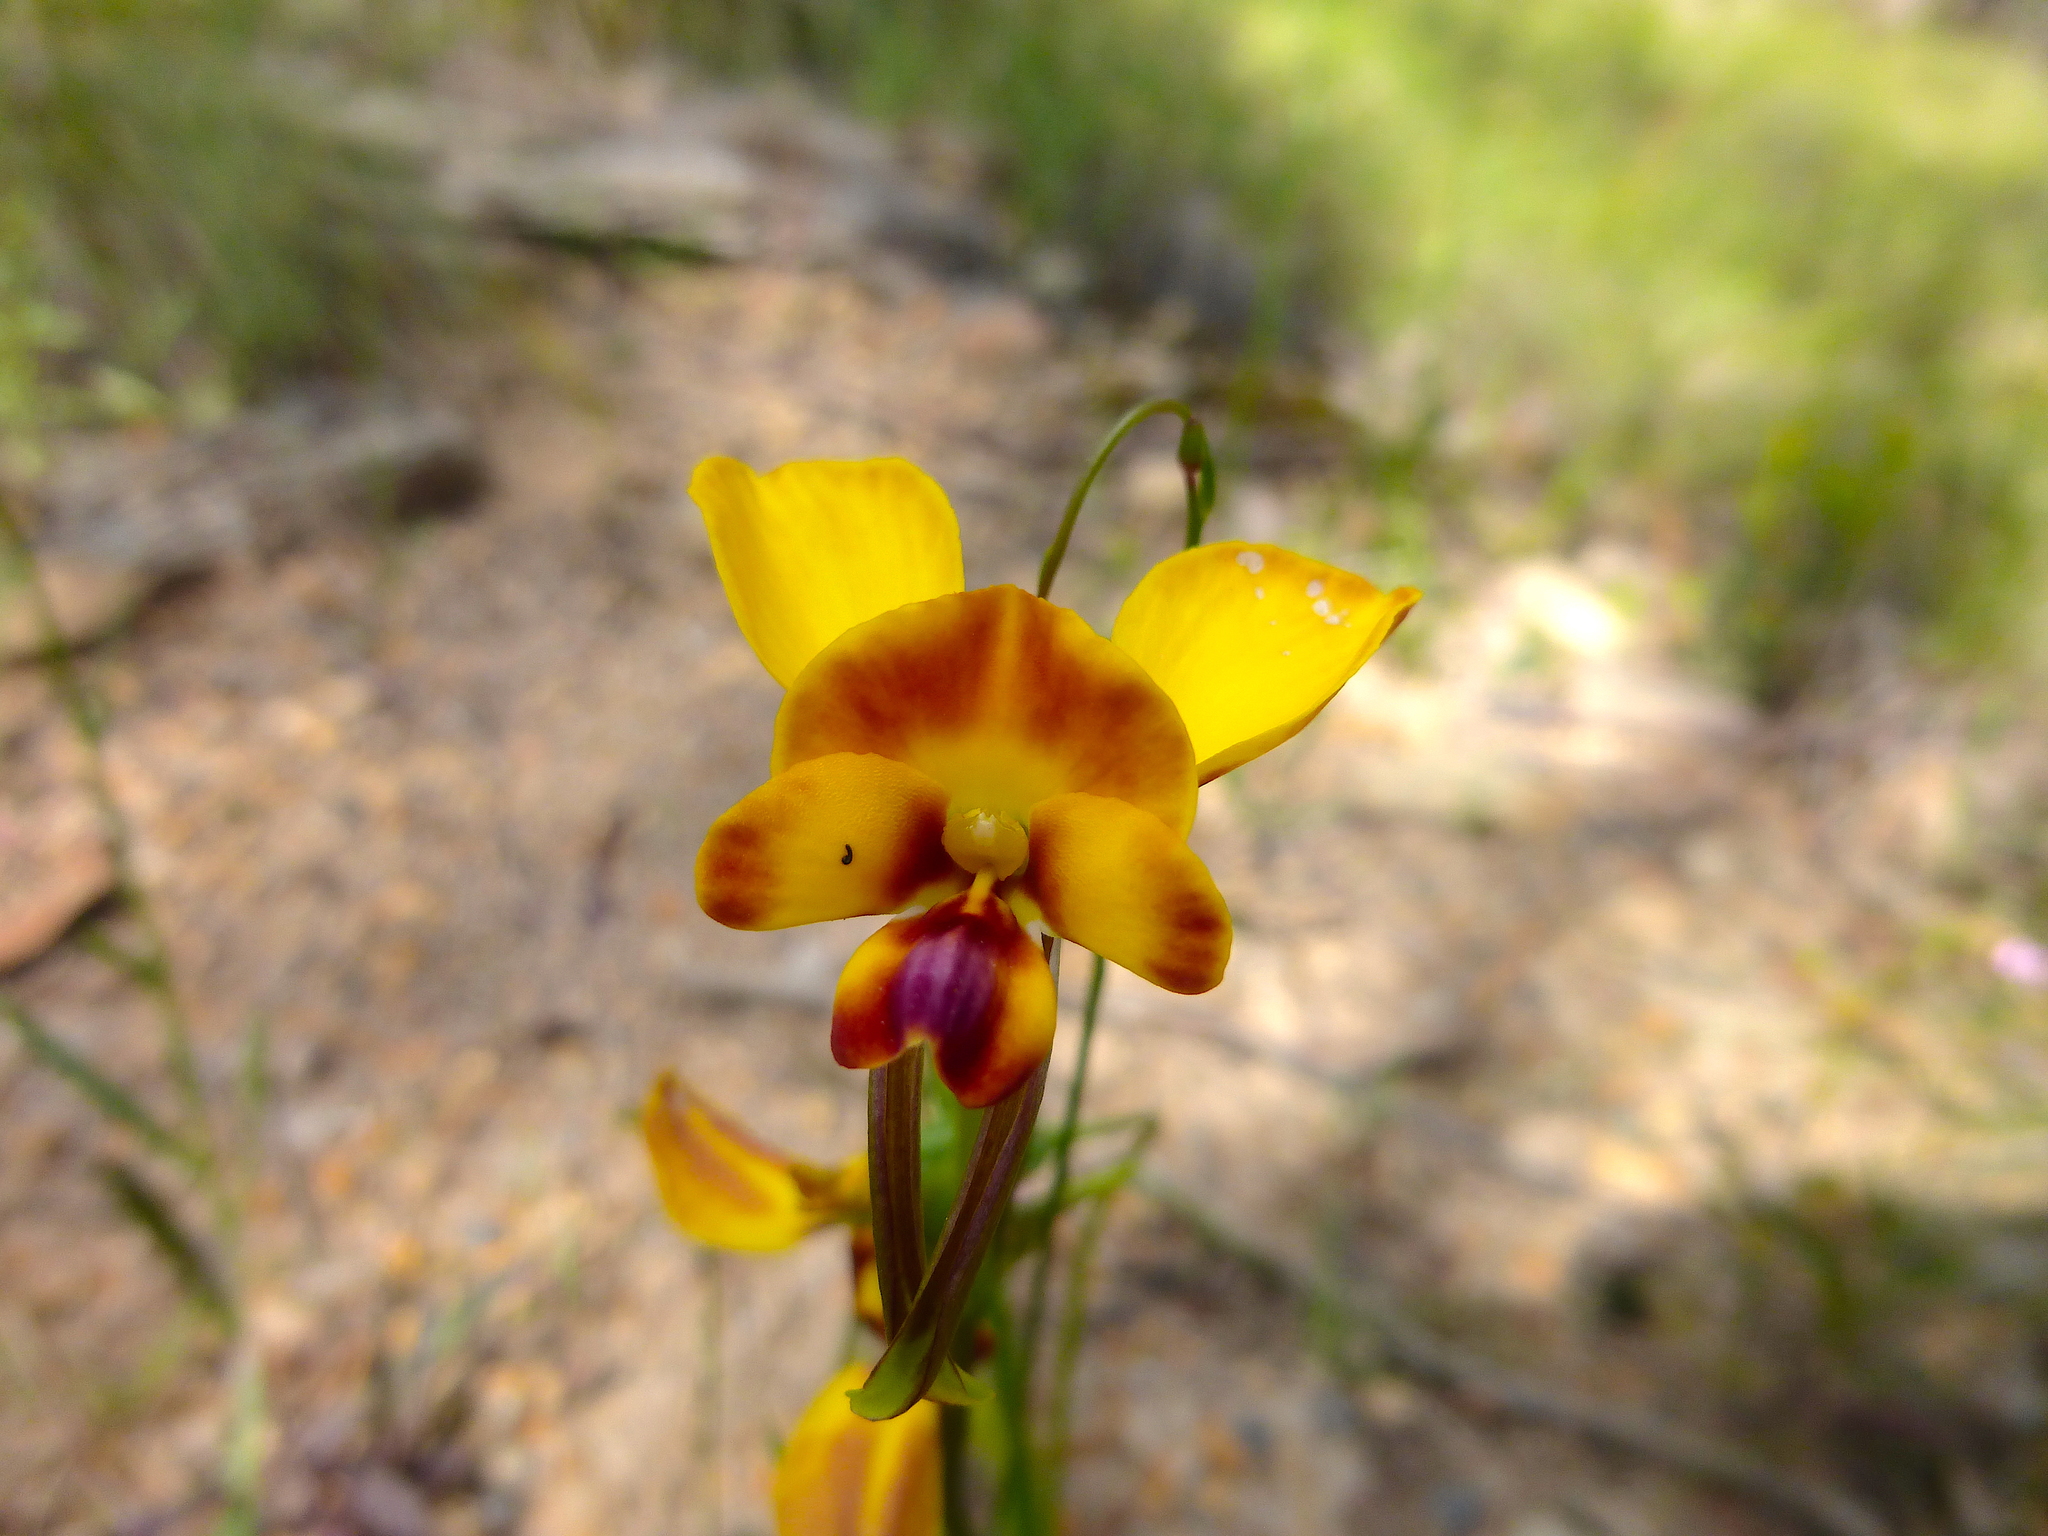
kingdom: Plantae
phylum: Tracheophyta
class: Liliopsida
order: Asparagales
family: Orchidaceae
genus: Diuris
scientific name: Diuris orientis
